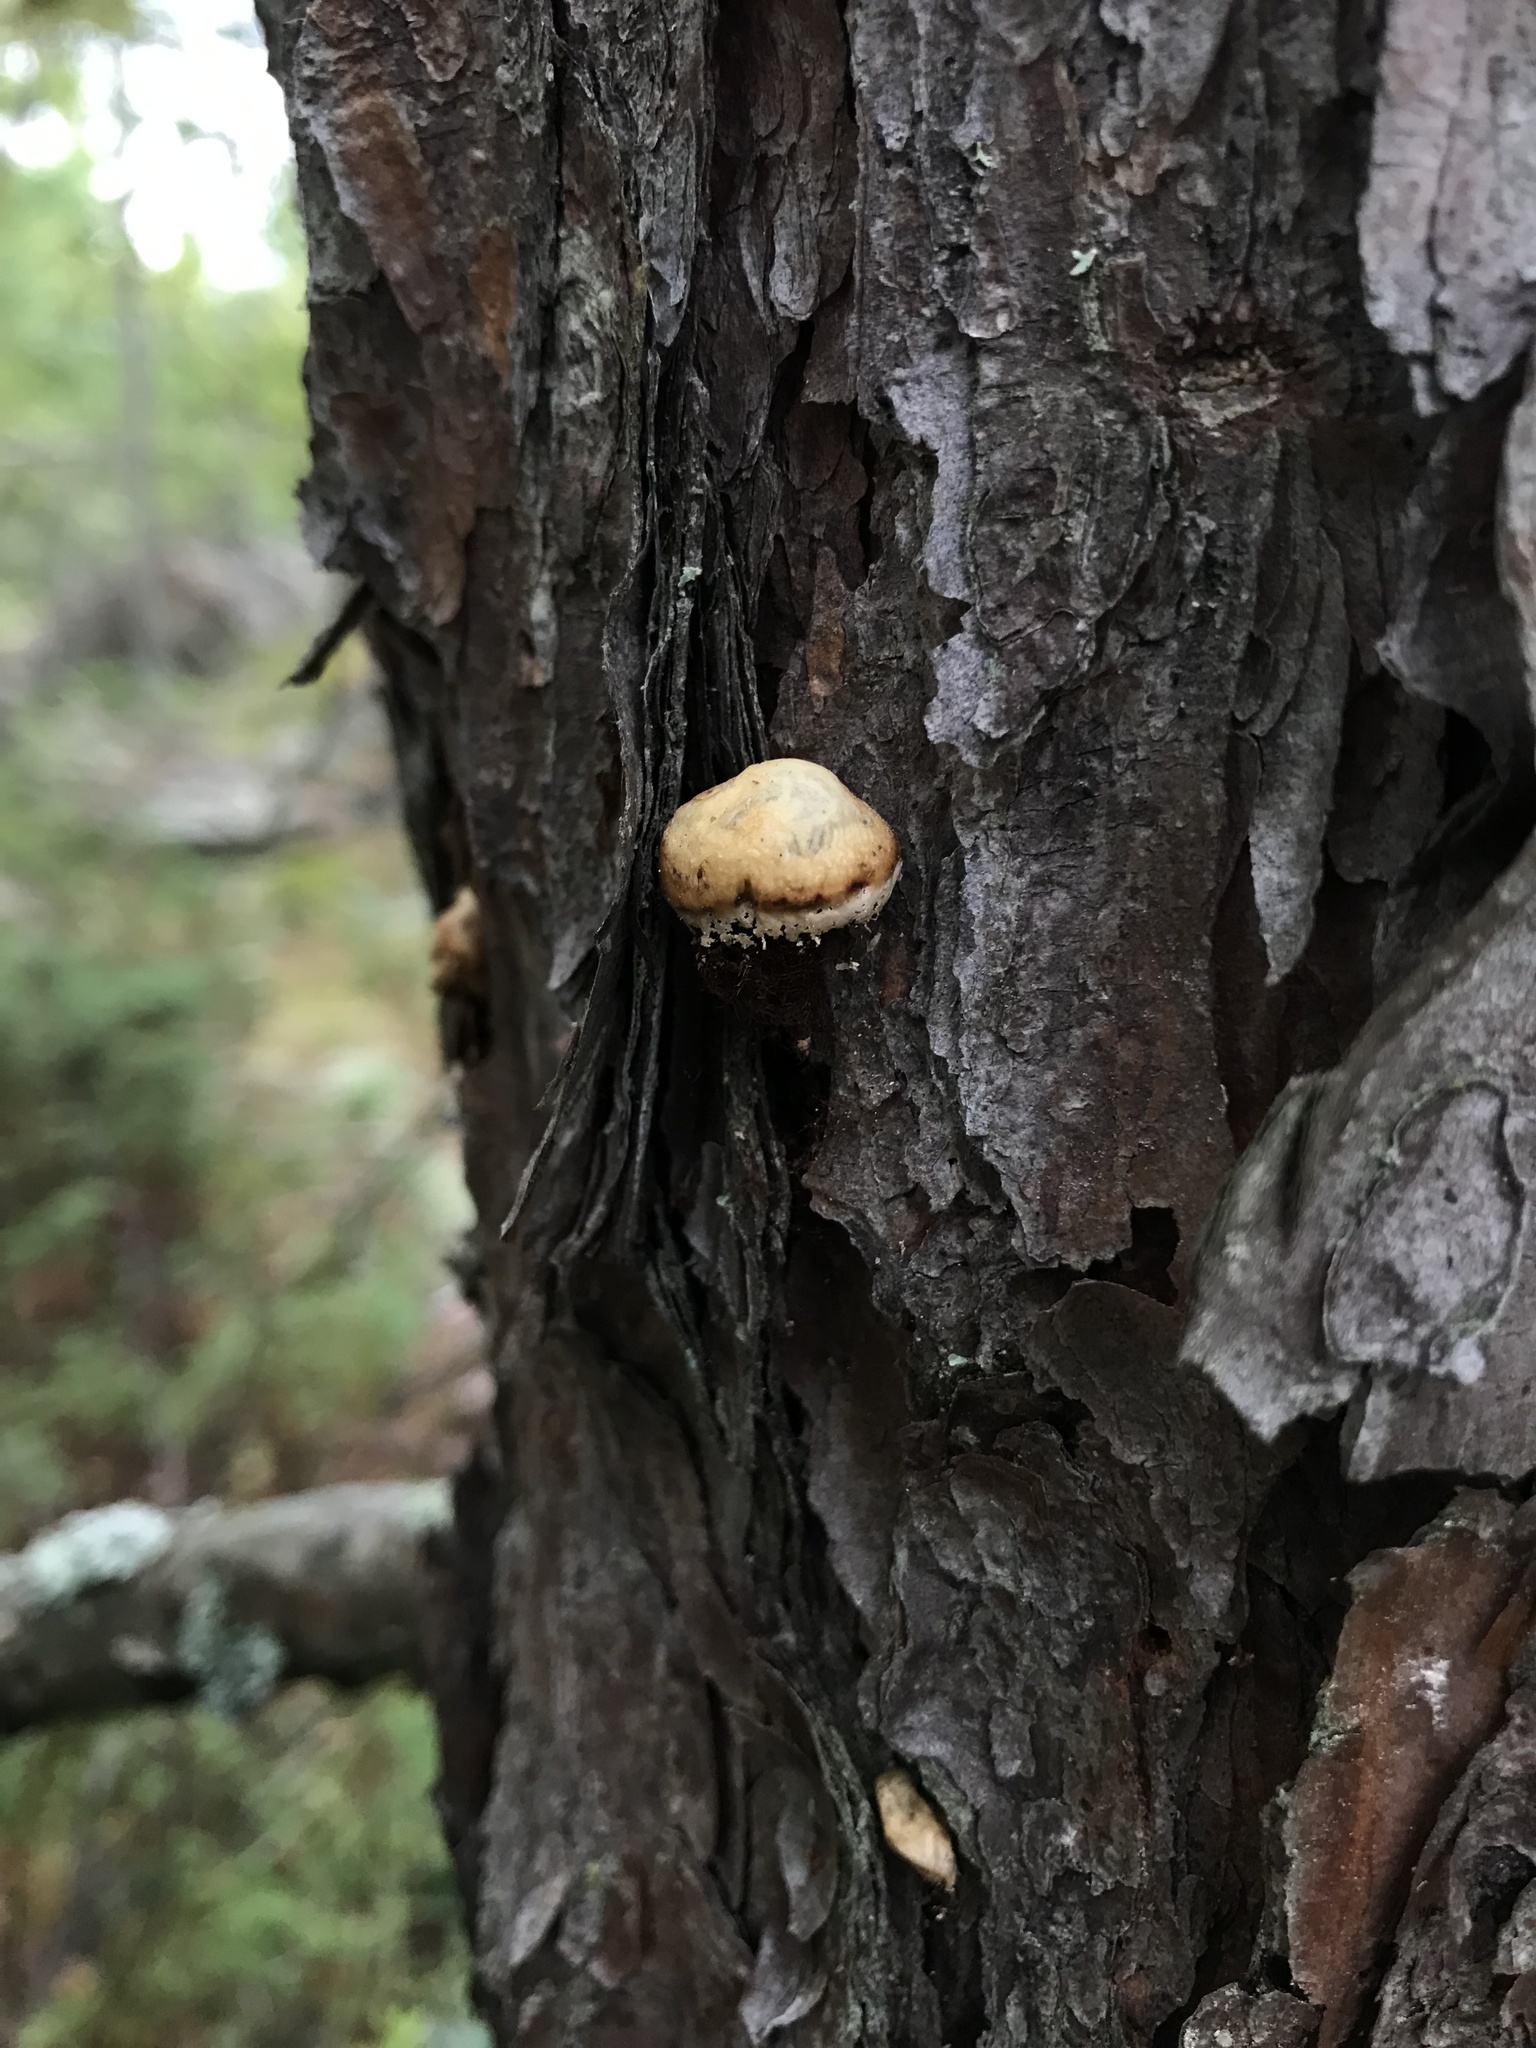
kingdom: Fungi
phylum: Basidiomycota
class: Agaricomycetes
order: Polyporales
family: Polyporaceae
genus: Cryptoporus
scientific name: Cryptoporus volvatus
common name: Veiled polypore
